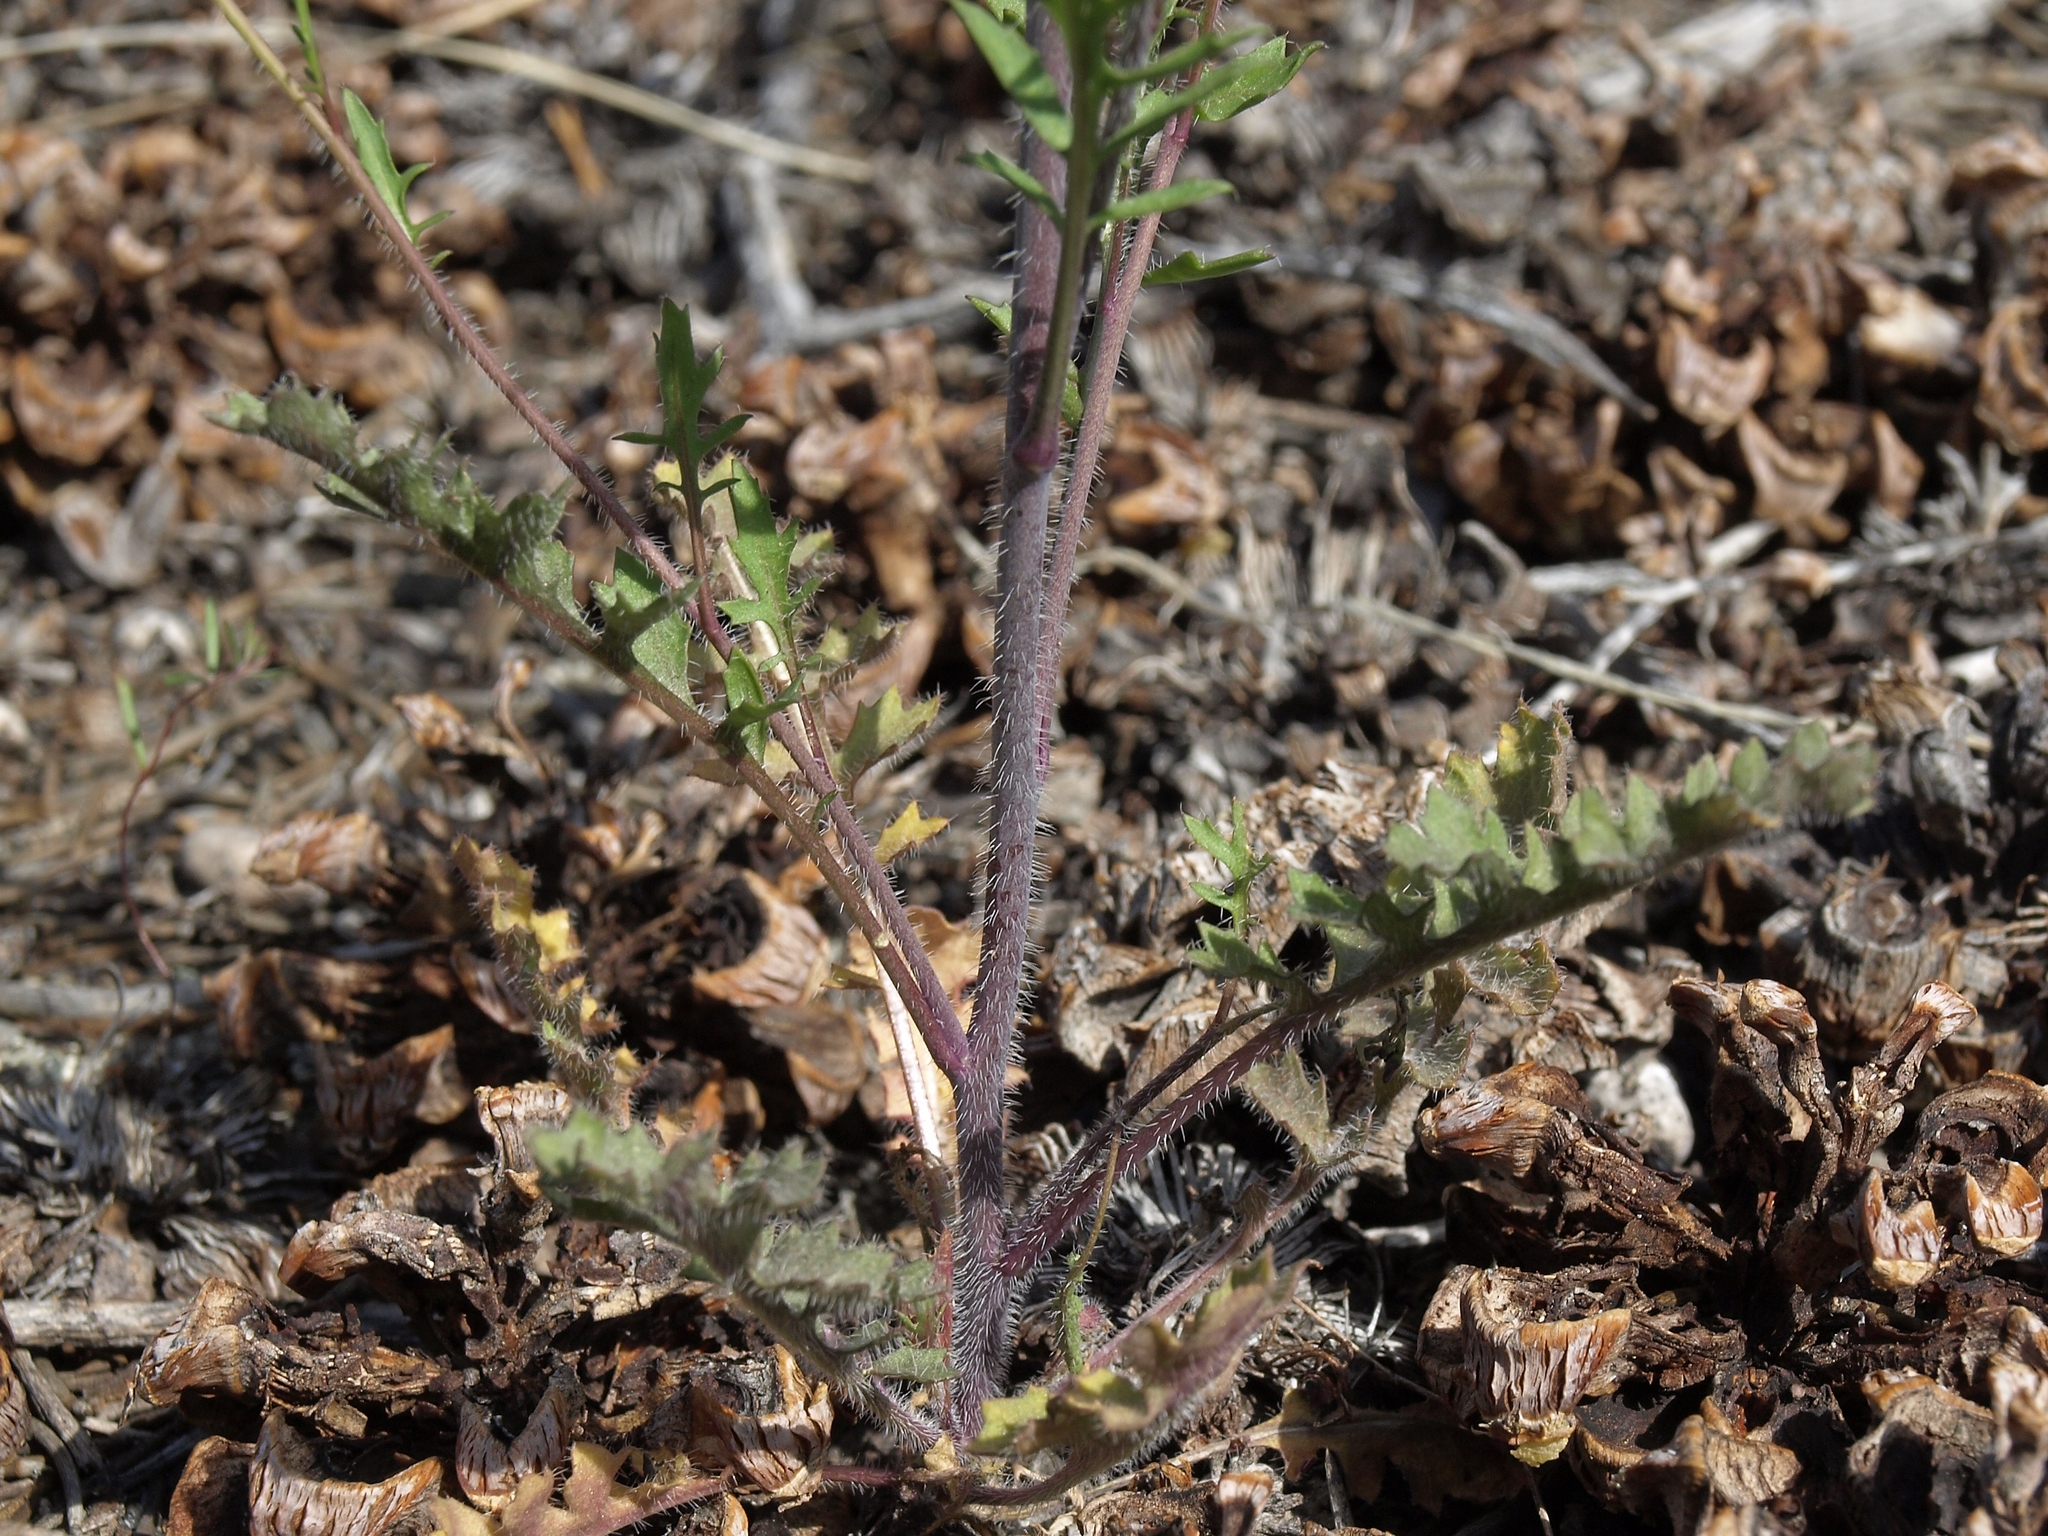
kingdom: Plantae
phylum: Tracheophyta
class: Magnoliopsida
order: Brassicales
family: Brassicaceae
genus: Streptanthus
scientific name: Streptanthus pilosus
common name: Chocolate drops
